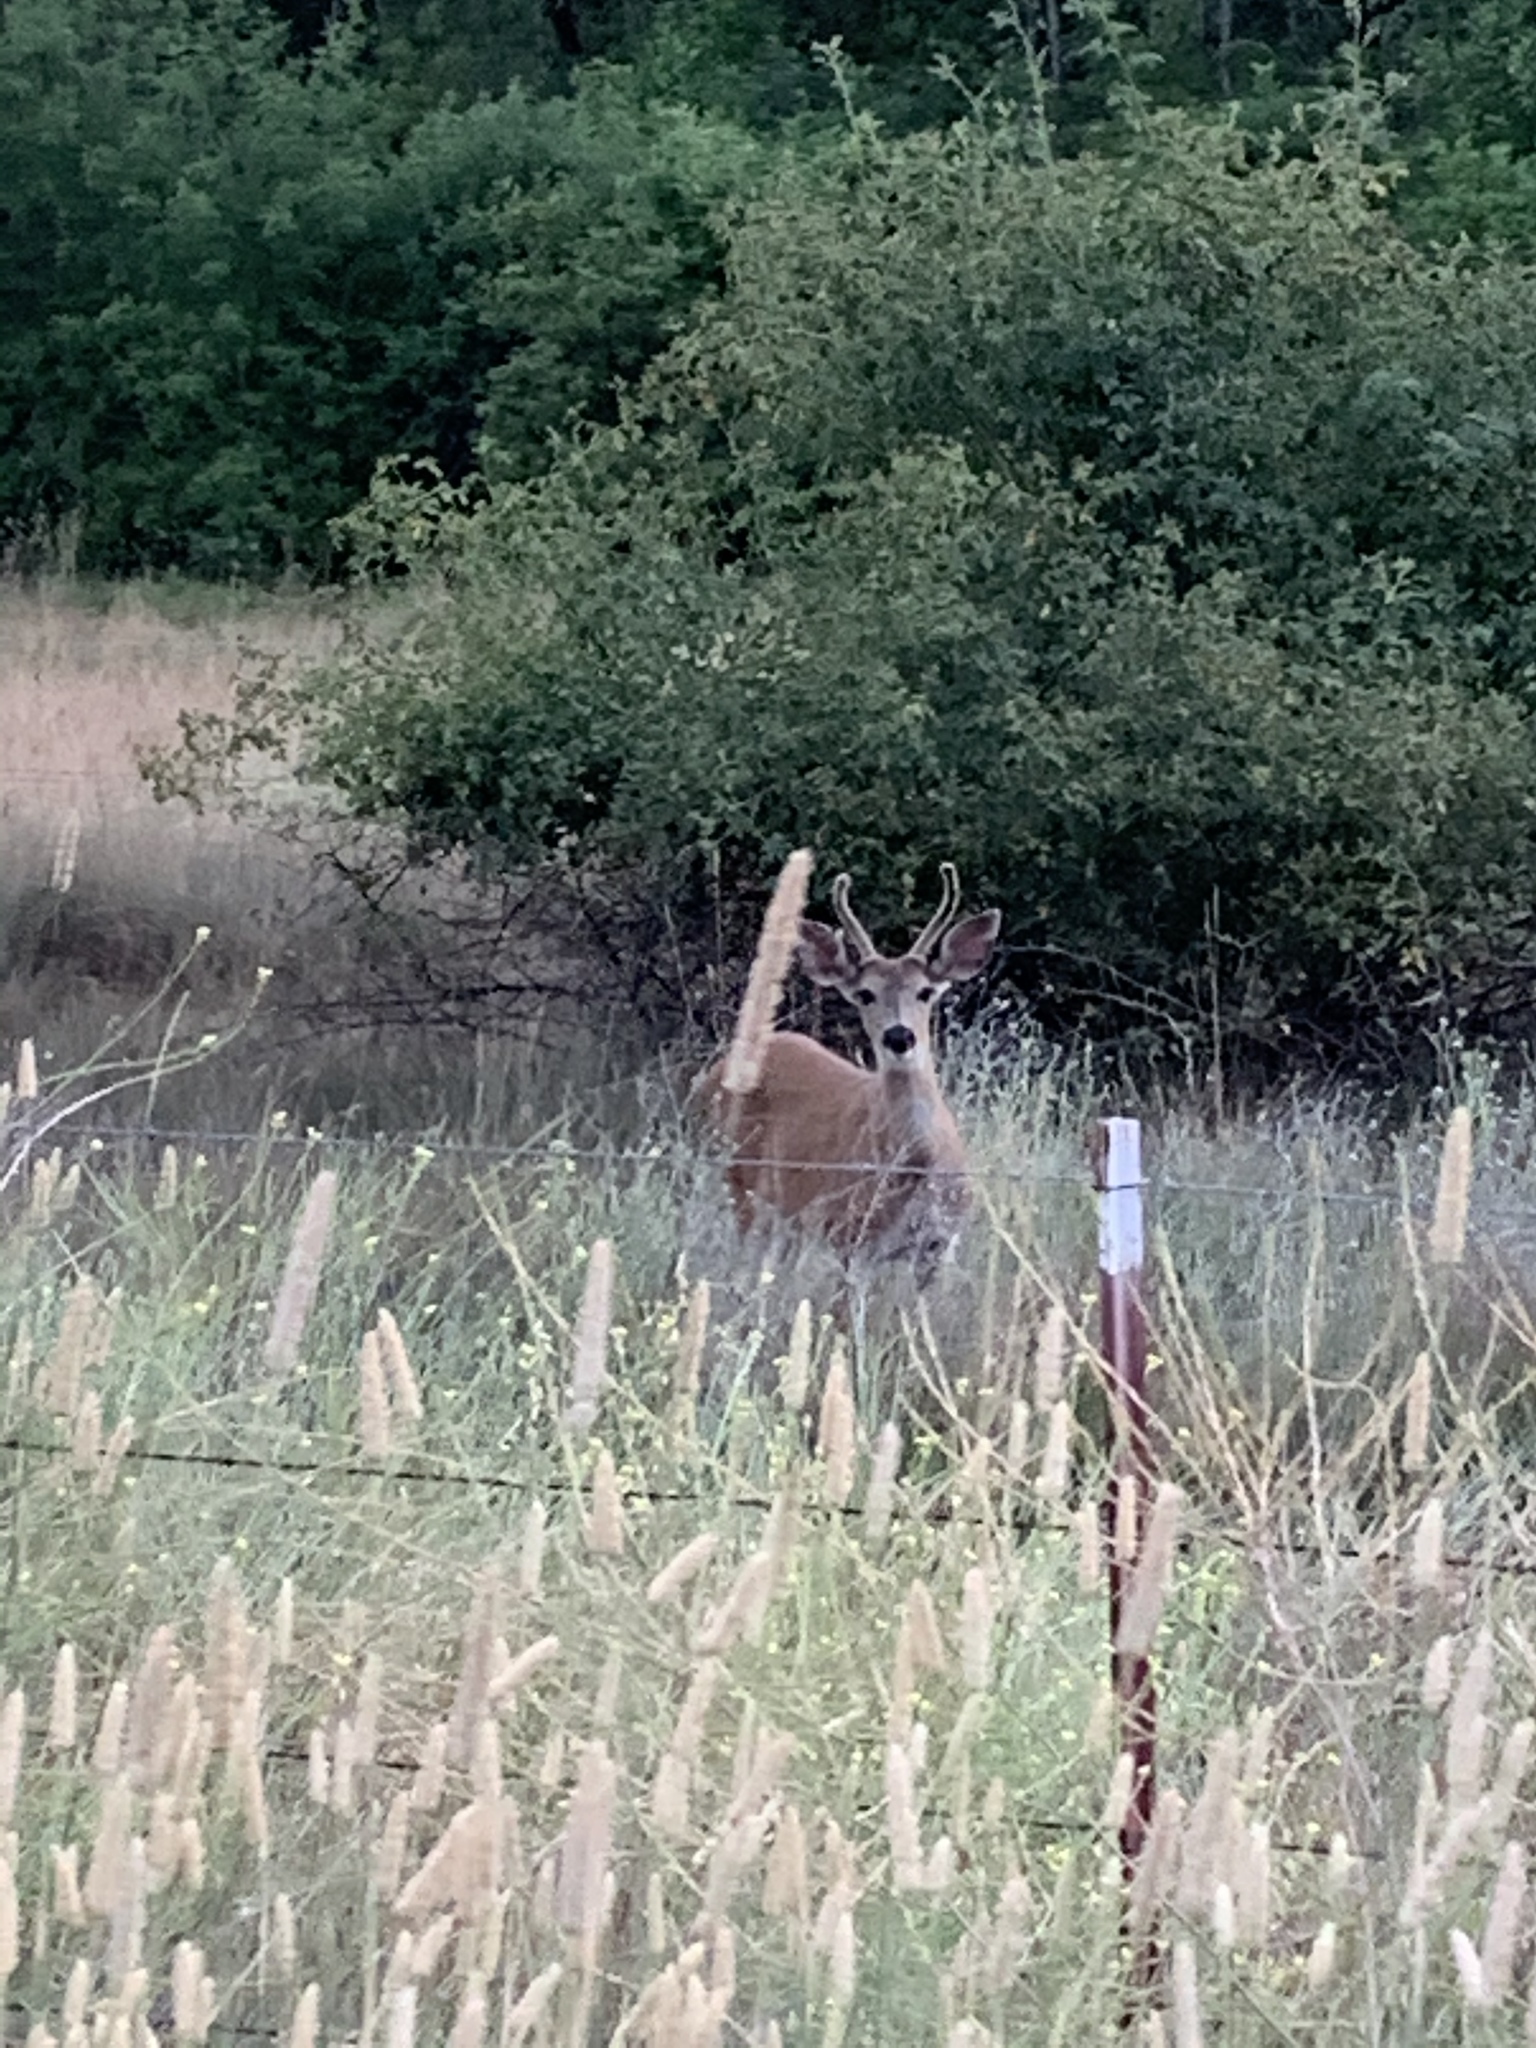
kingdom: Animalia
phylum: Chordata
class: Mammalia
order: Artiodactyla
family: Cervidae
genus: Odocoileus
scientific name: Odocoileus hemionus
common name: Mule deer
